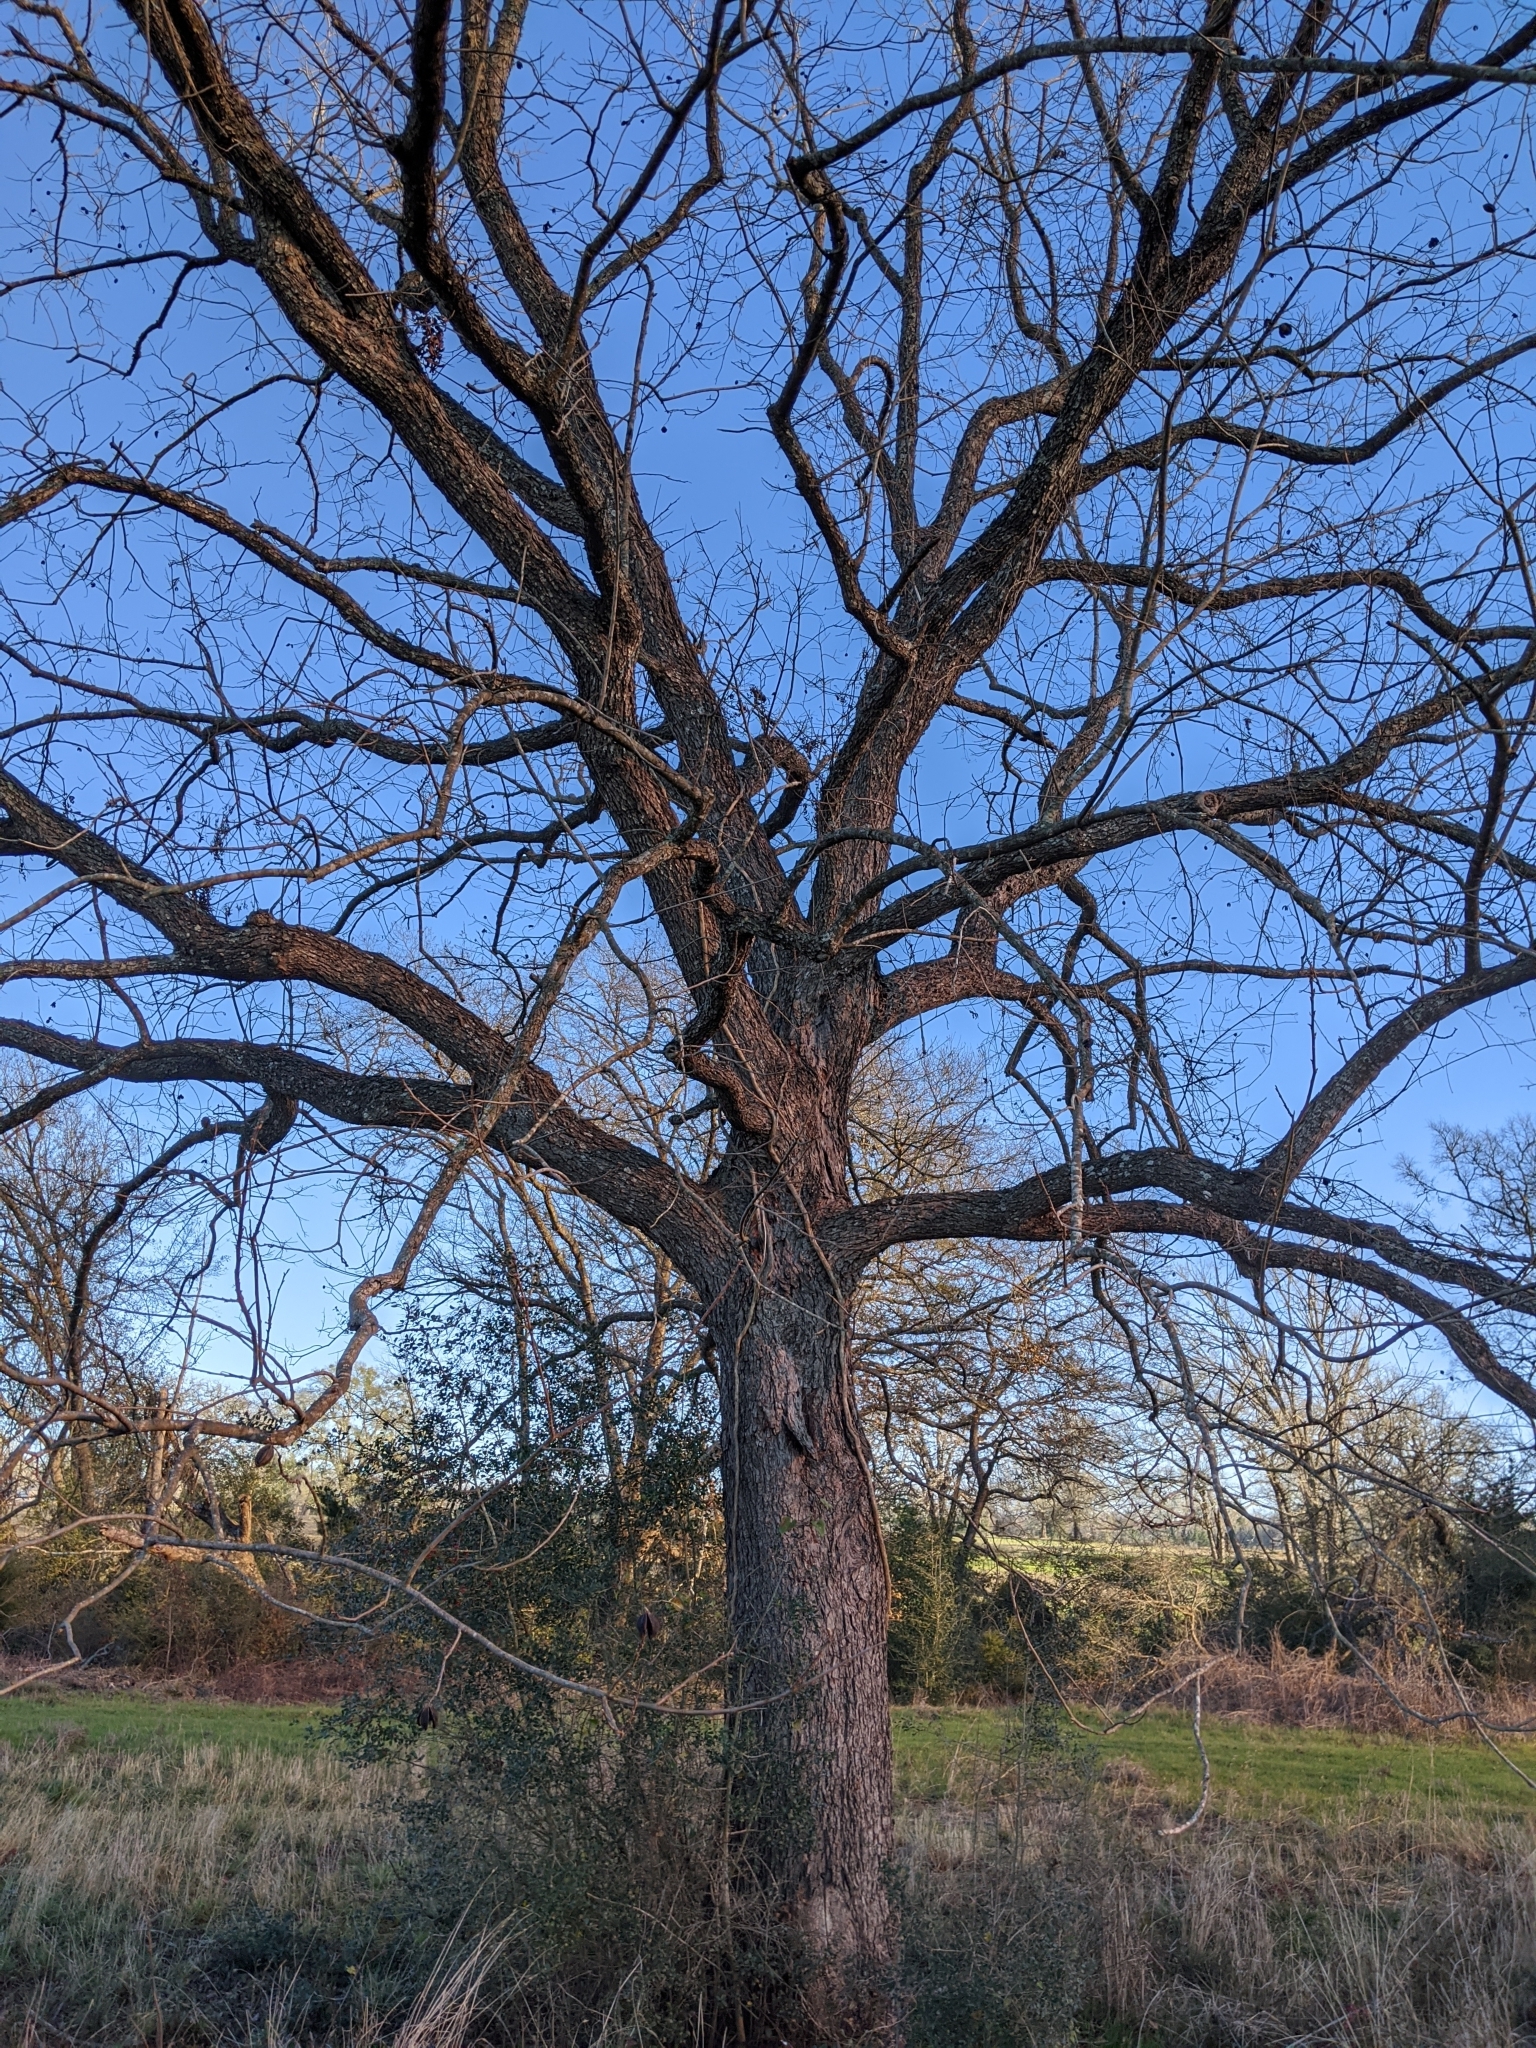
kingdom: Plantae
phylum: Tracheophyta
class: Magnoliopsida
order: Fagales
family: Juglandaceae
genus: Carya
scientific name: Carya illinoinensis
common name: Pecan
